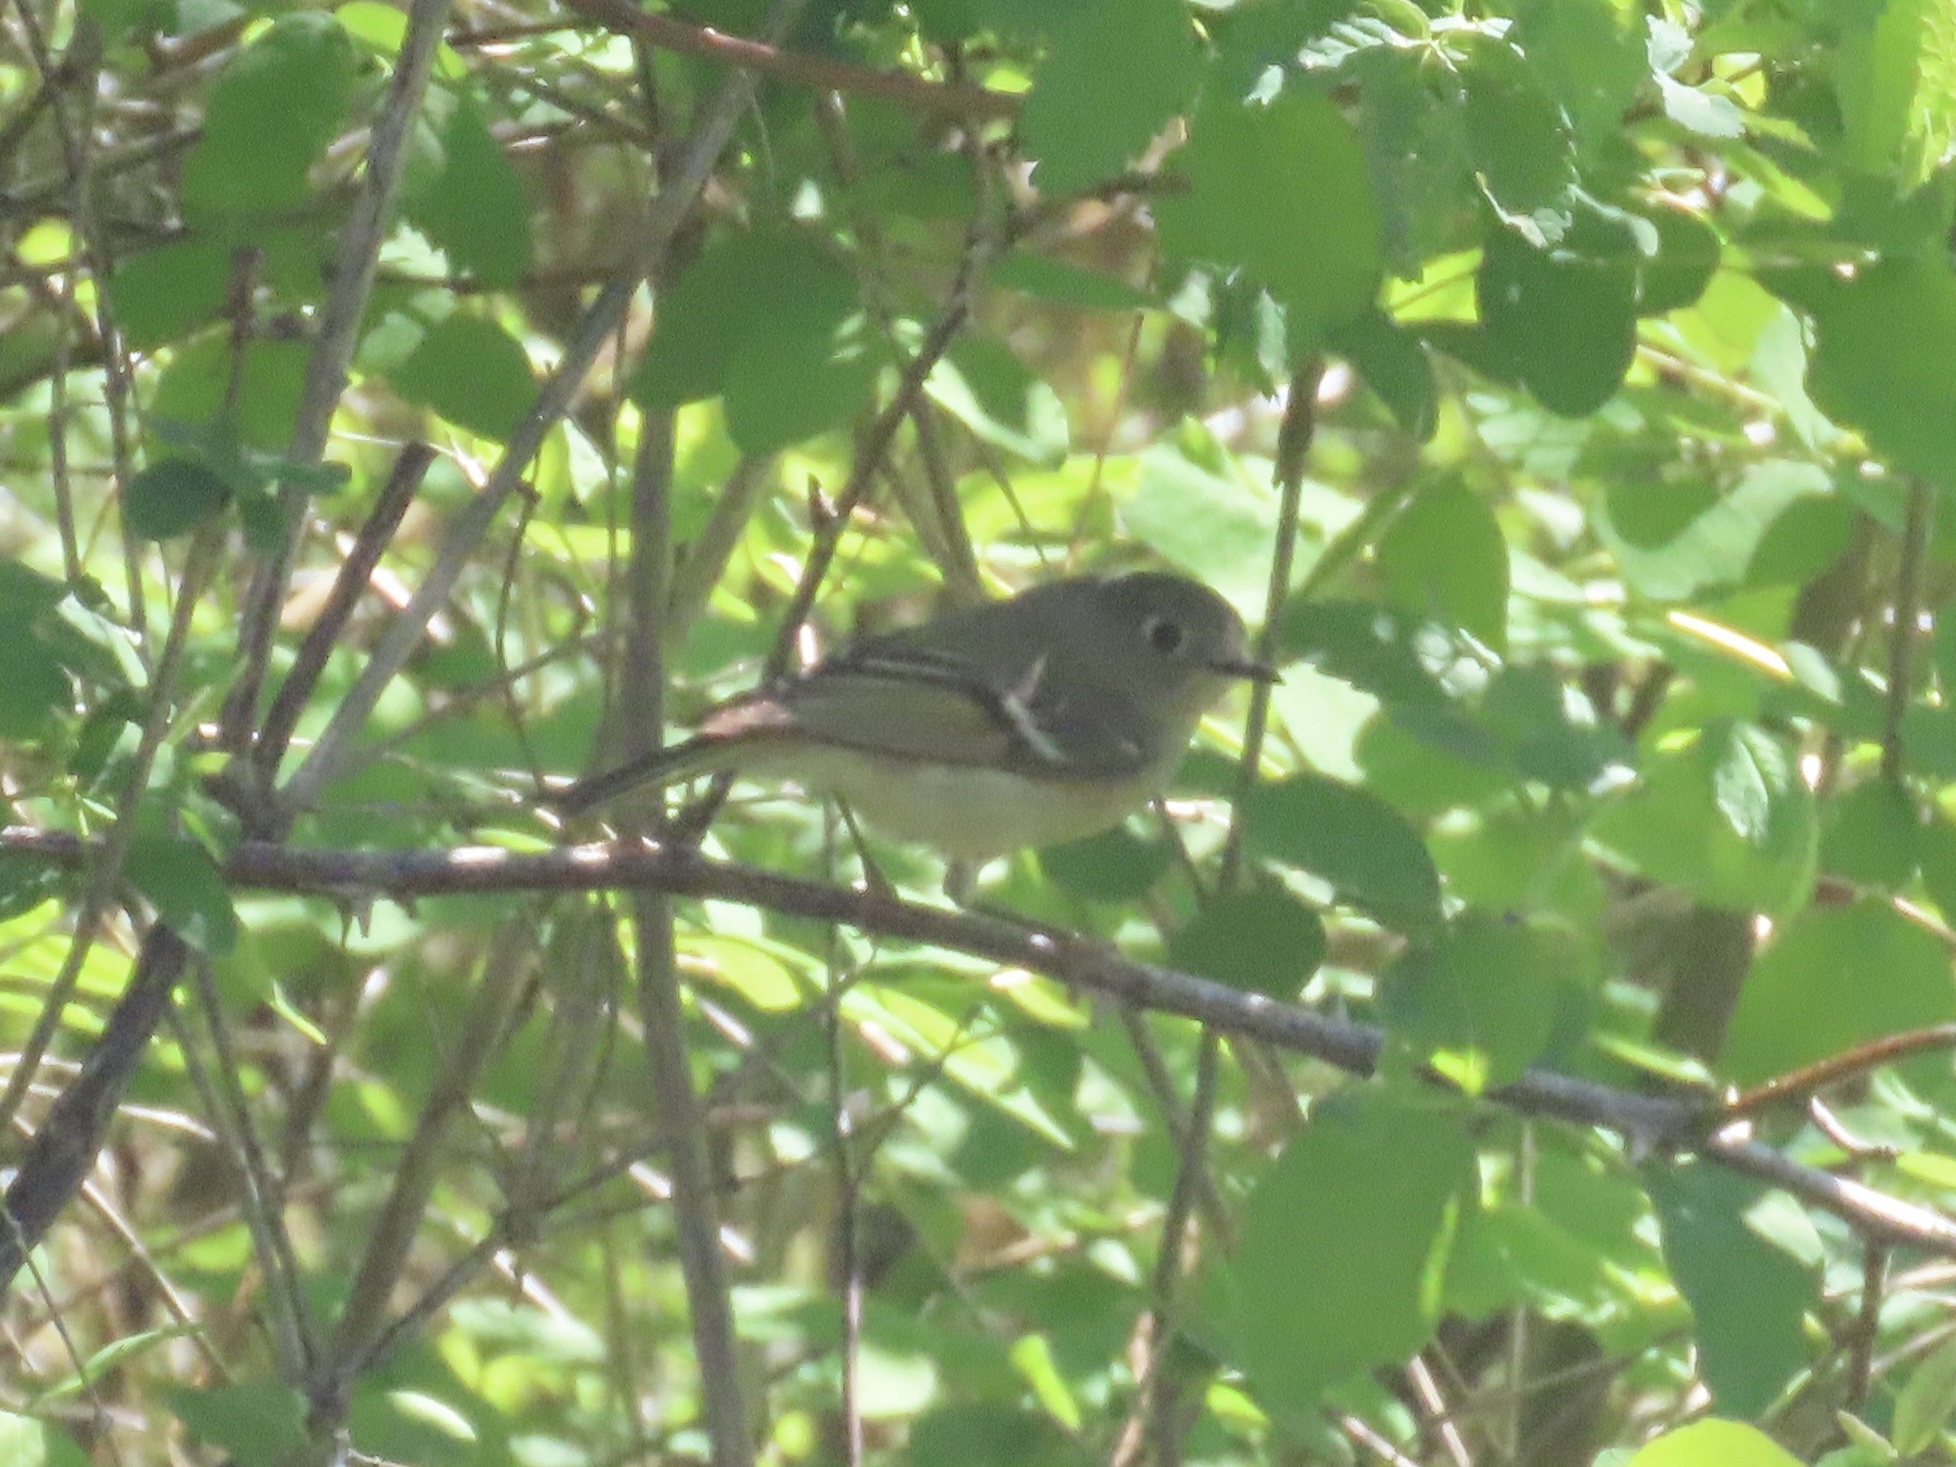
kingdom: Animalia
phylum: Chordata
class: Aves
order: Passeriformes
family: Regulidae
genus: Regulus
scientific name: Regulus calendula
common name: Ruby-crowned kinglet
